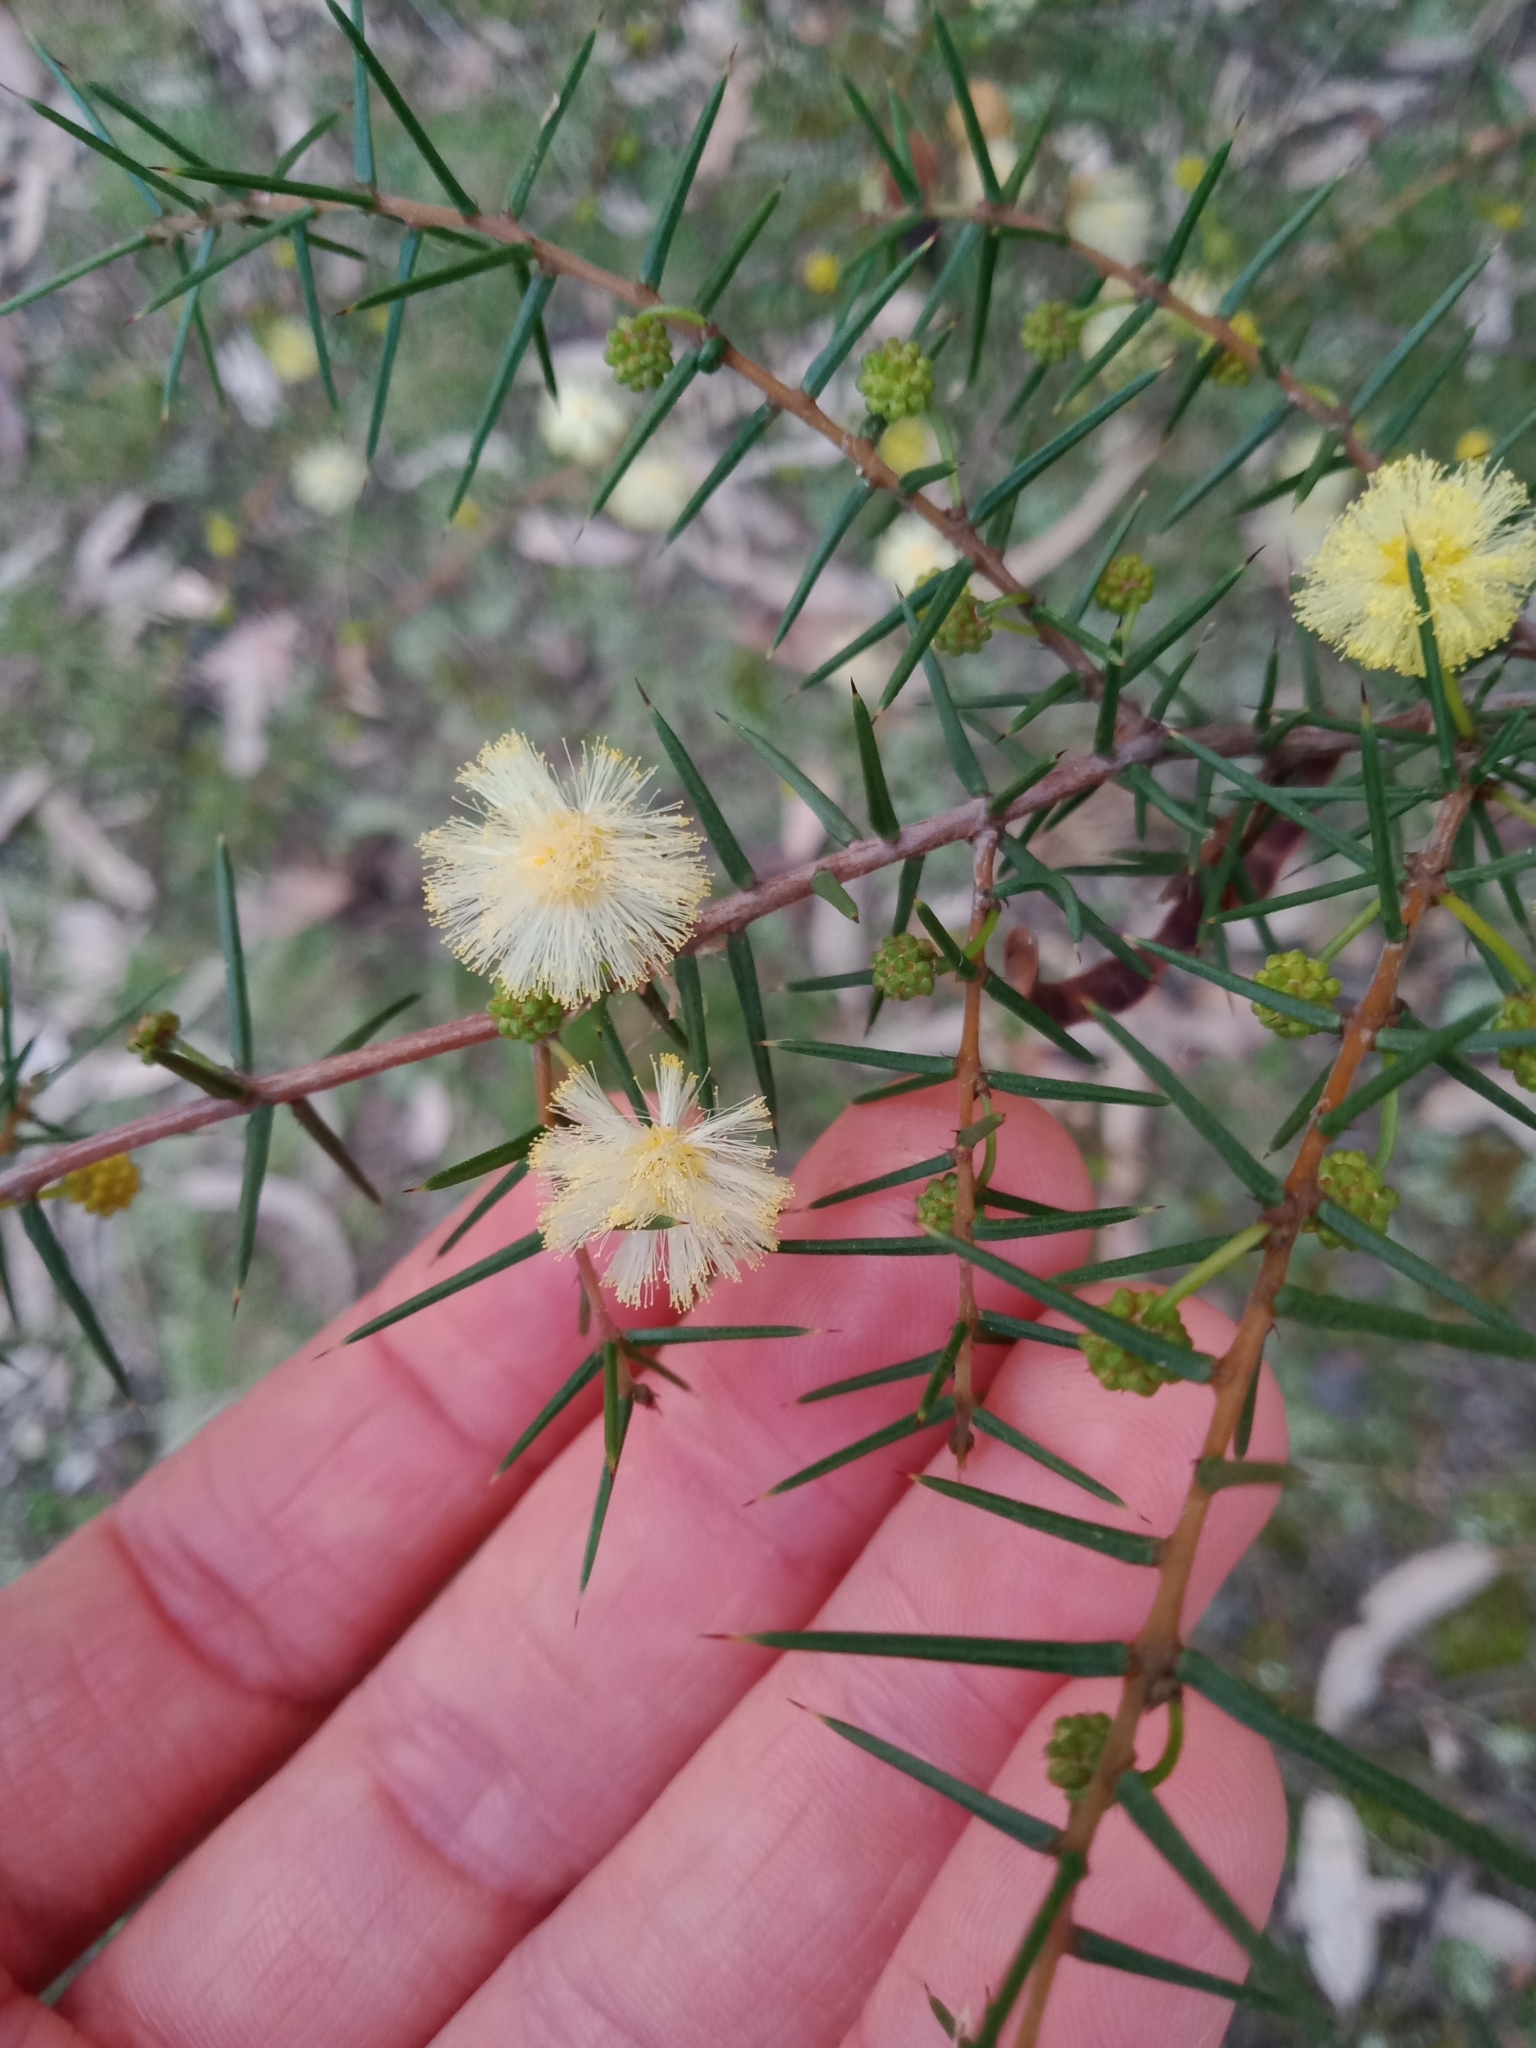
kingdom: Plantae
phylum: Tracheophyta
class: Magnoliopsida
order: Fabales
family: Fabaceae
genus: Acacia
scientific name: Acacia ulicifolia
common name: Juniper wattle
